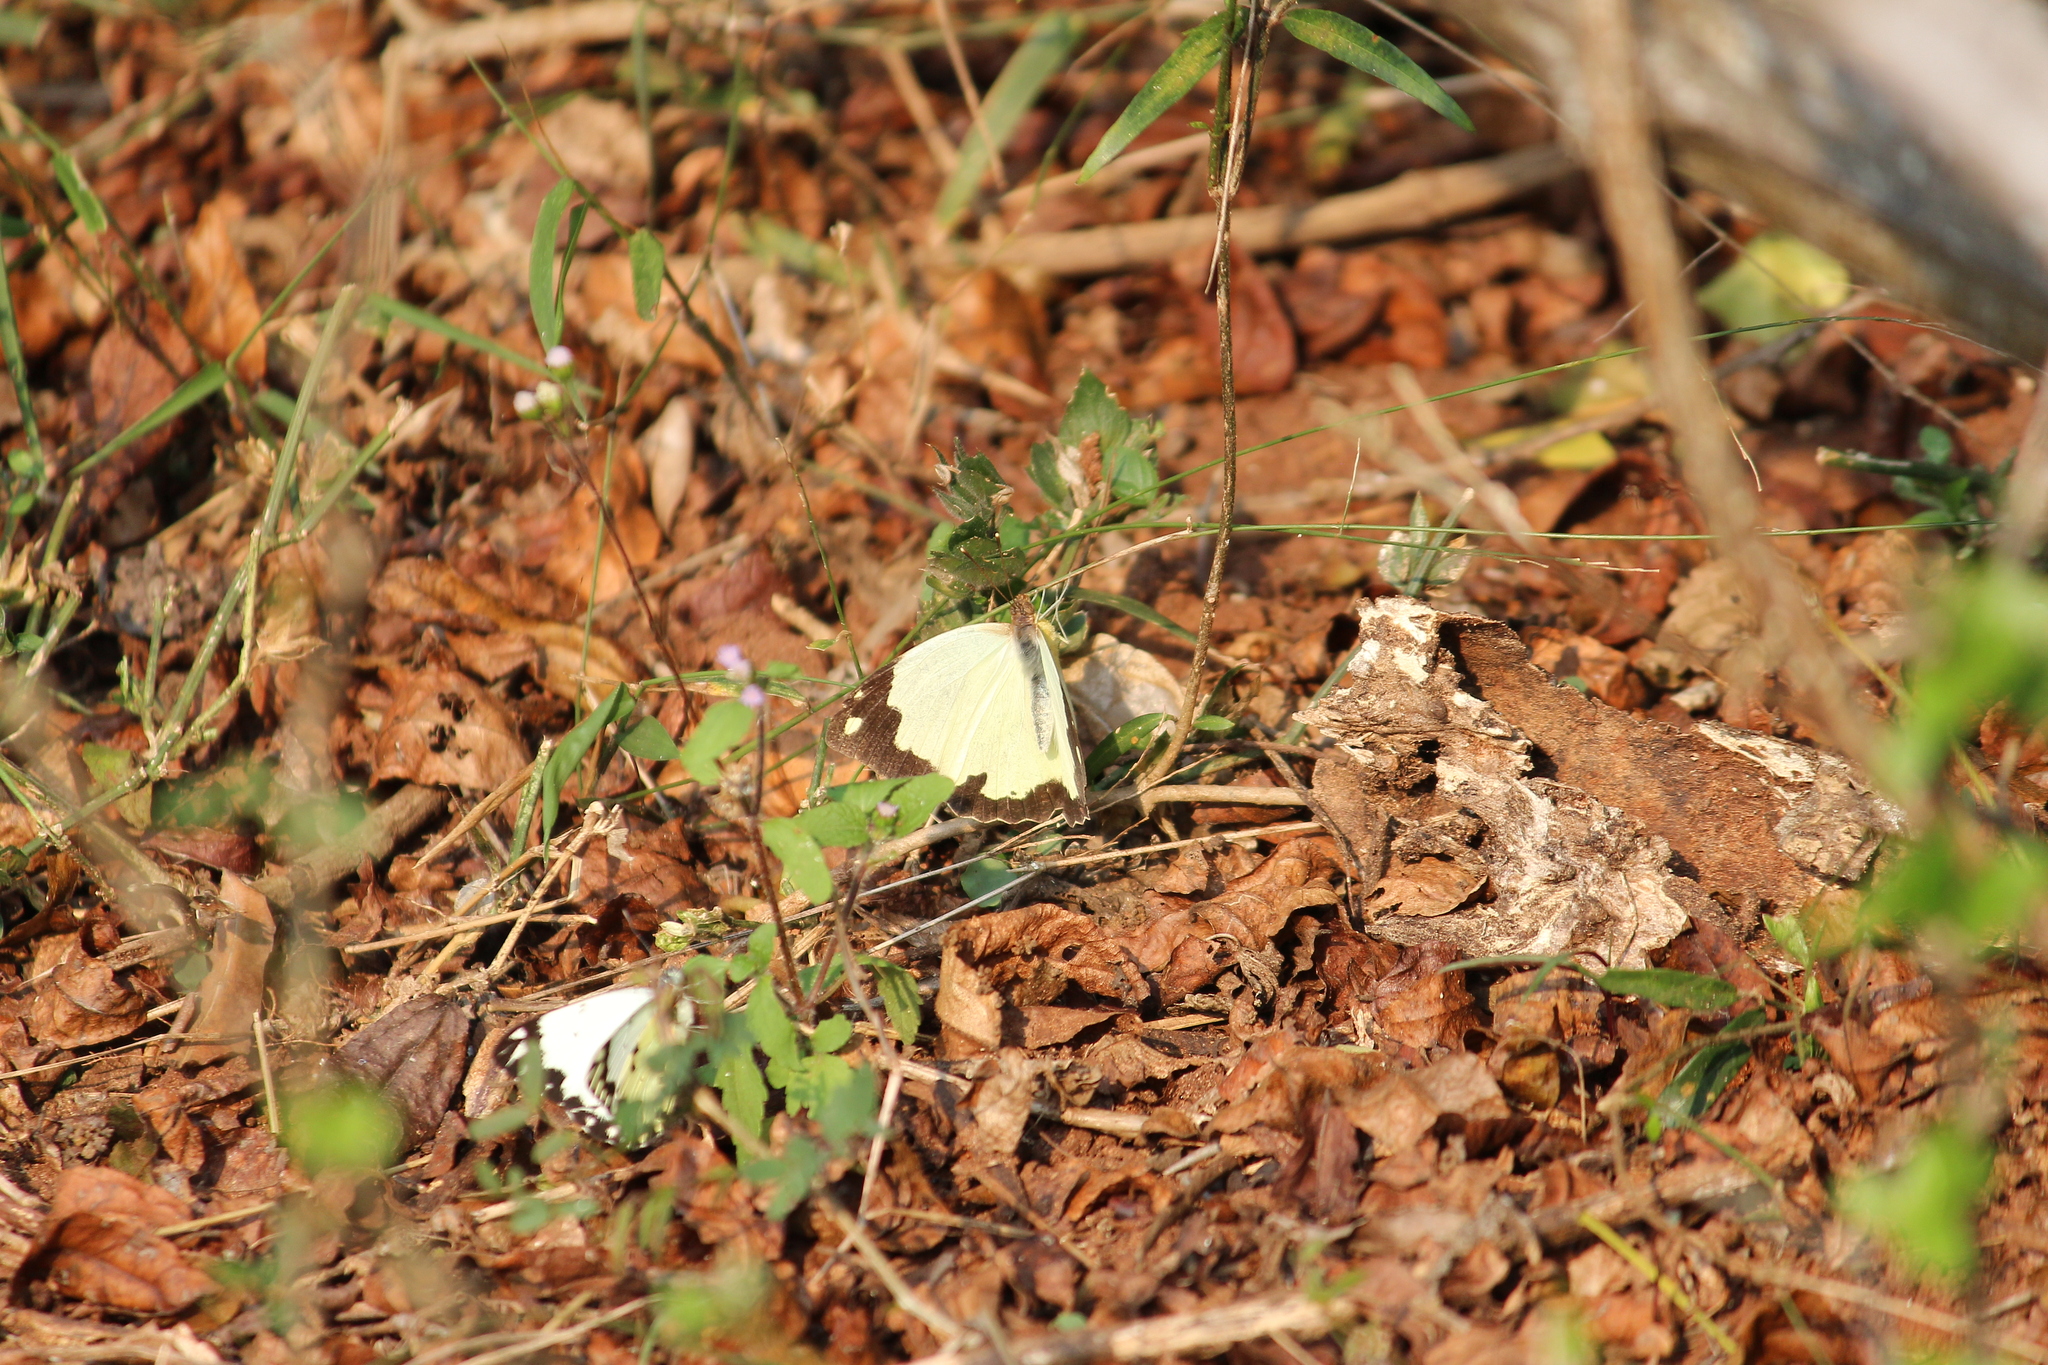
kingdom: Animalia
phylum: Arthropoda
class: Insecta
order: Lepidoptera
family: Pieridae
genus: Eronia
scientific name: Eronia cleodora
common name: Vine-leaf vagrant
